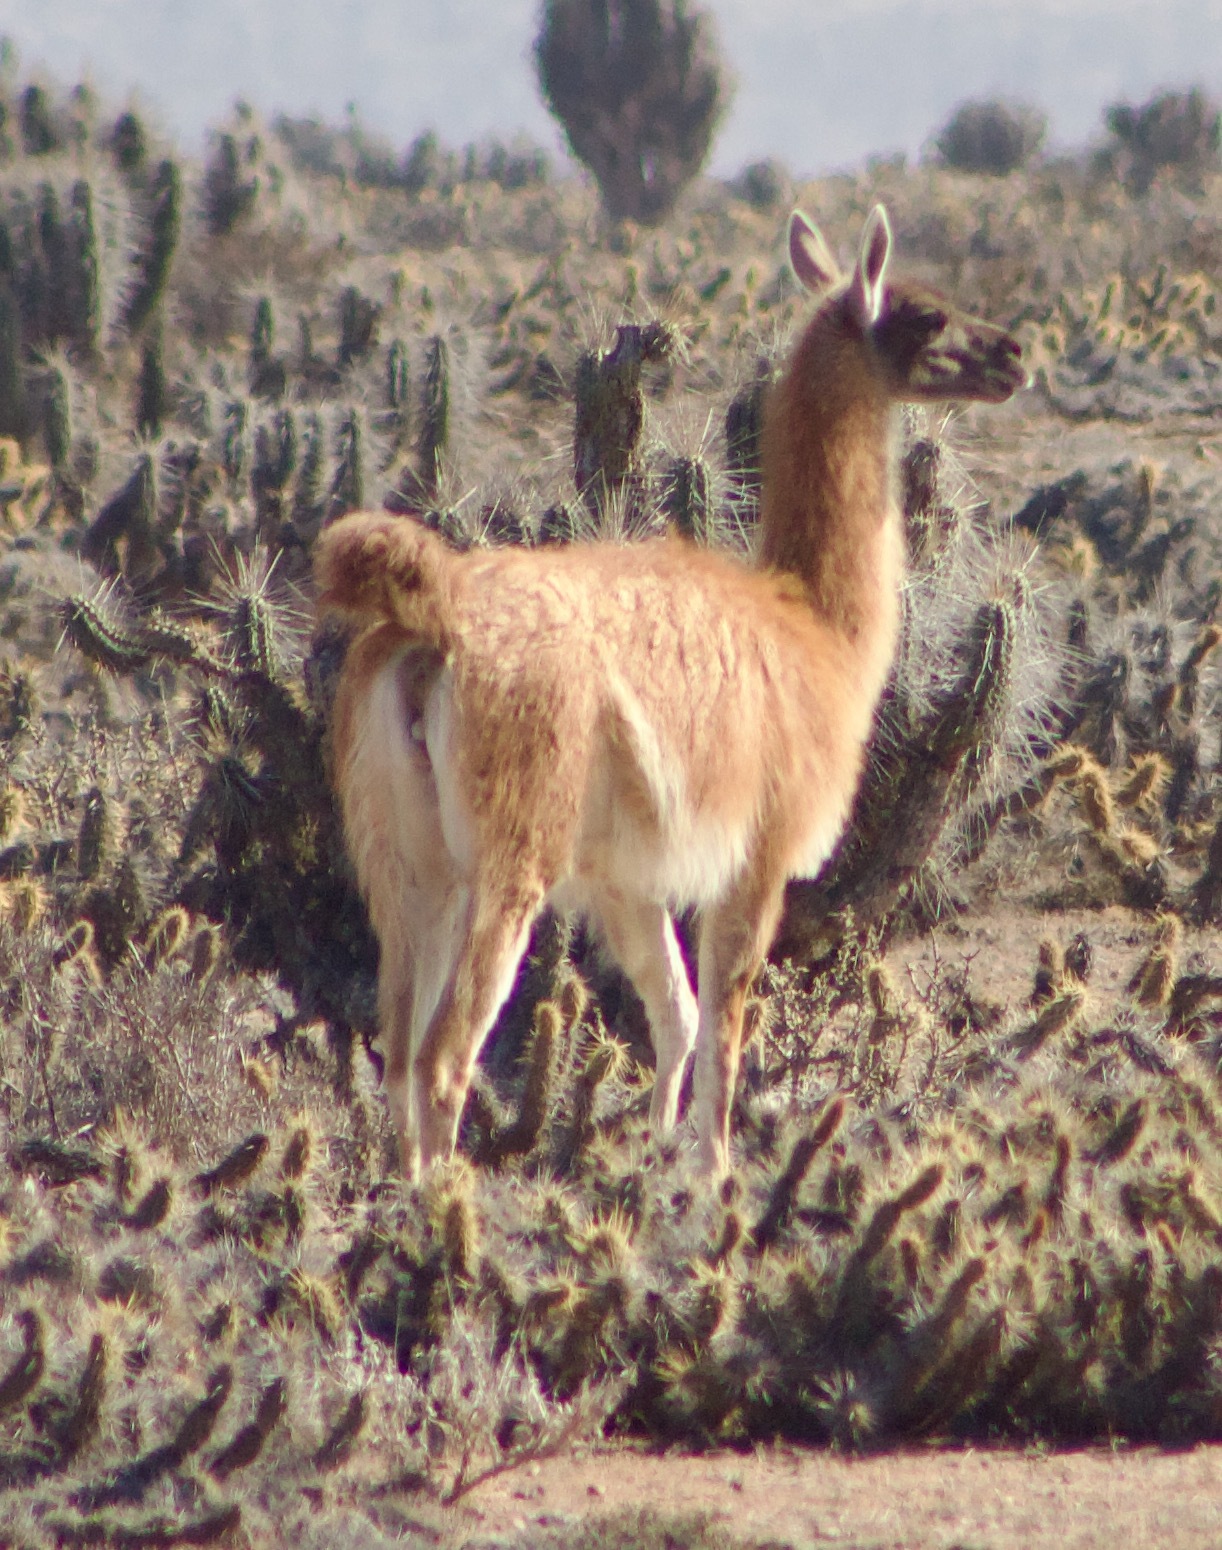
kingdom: Animalia
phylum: Chordata
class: Mammalia
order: Artiodactyla
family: Camelidae
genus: Lama
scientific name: Lama glama
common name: Llama
